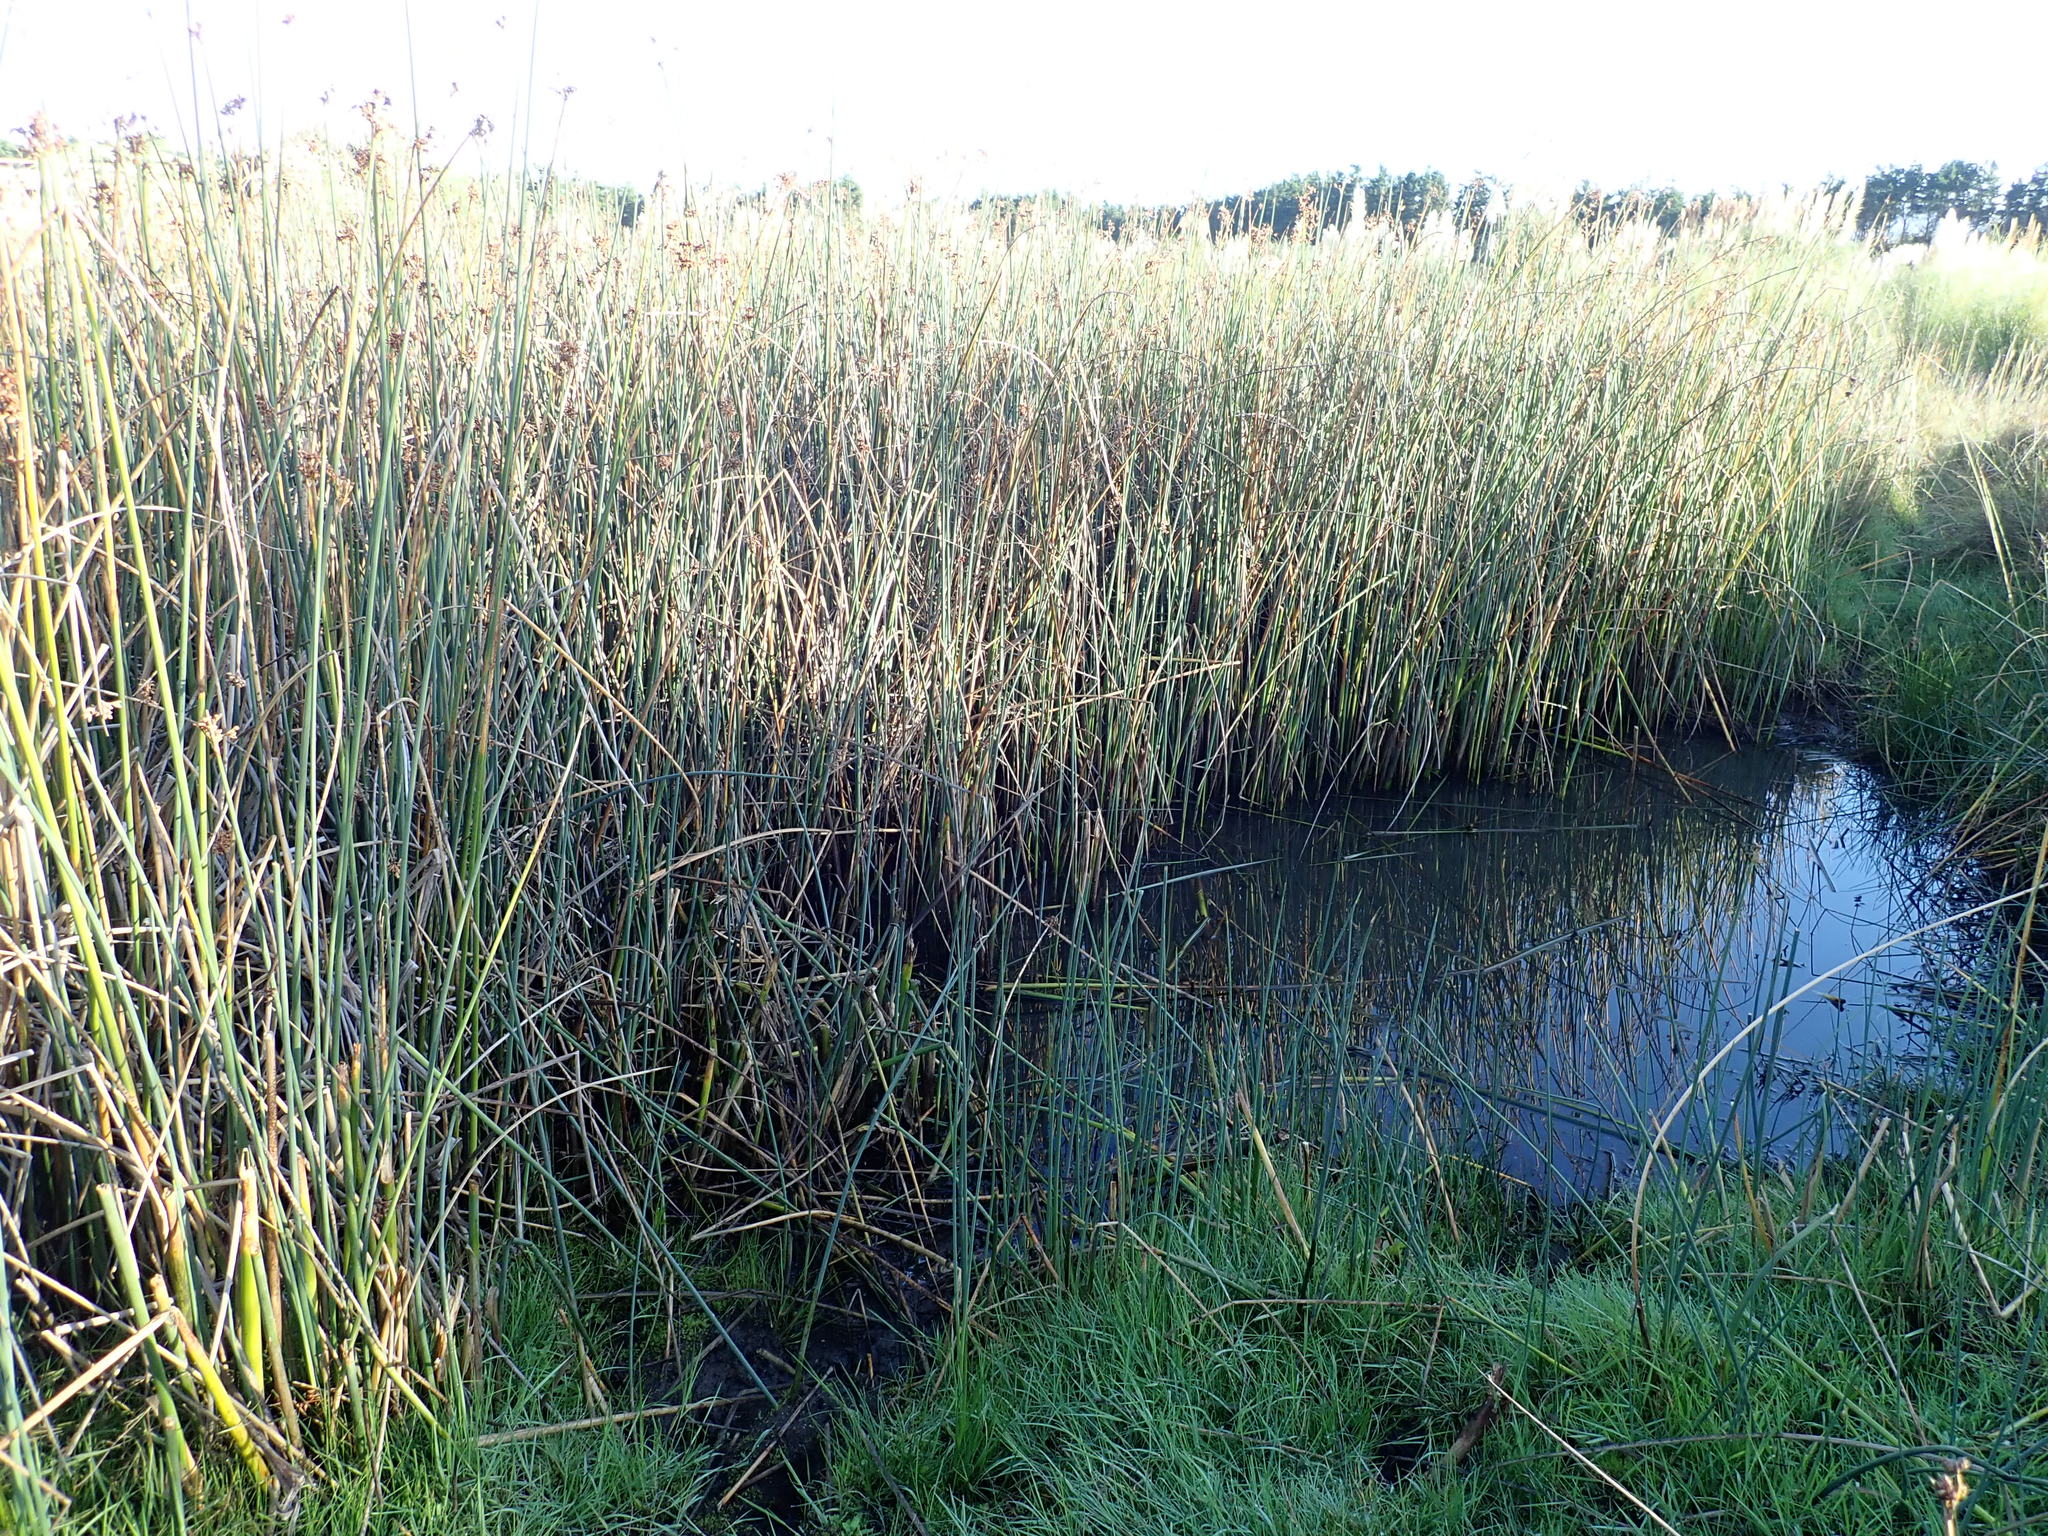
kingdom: Plantae
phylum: Tracheophyta
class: Liliopsida
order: Poales
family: Cyperaceae
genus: Schoenoplectus
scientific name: Schoenoplectus tabernaemontani
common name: Grey club-rush
